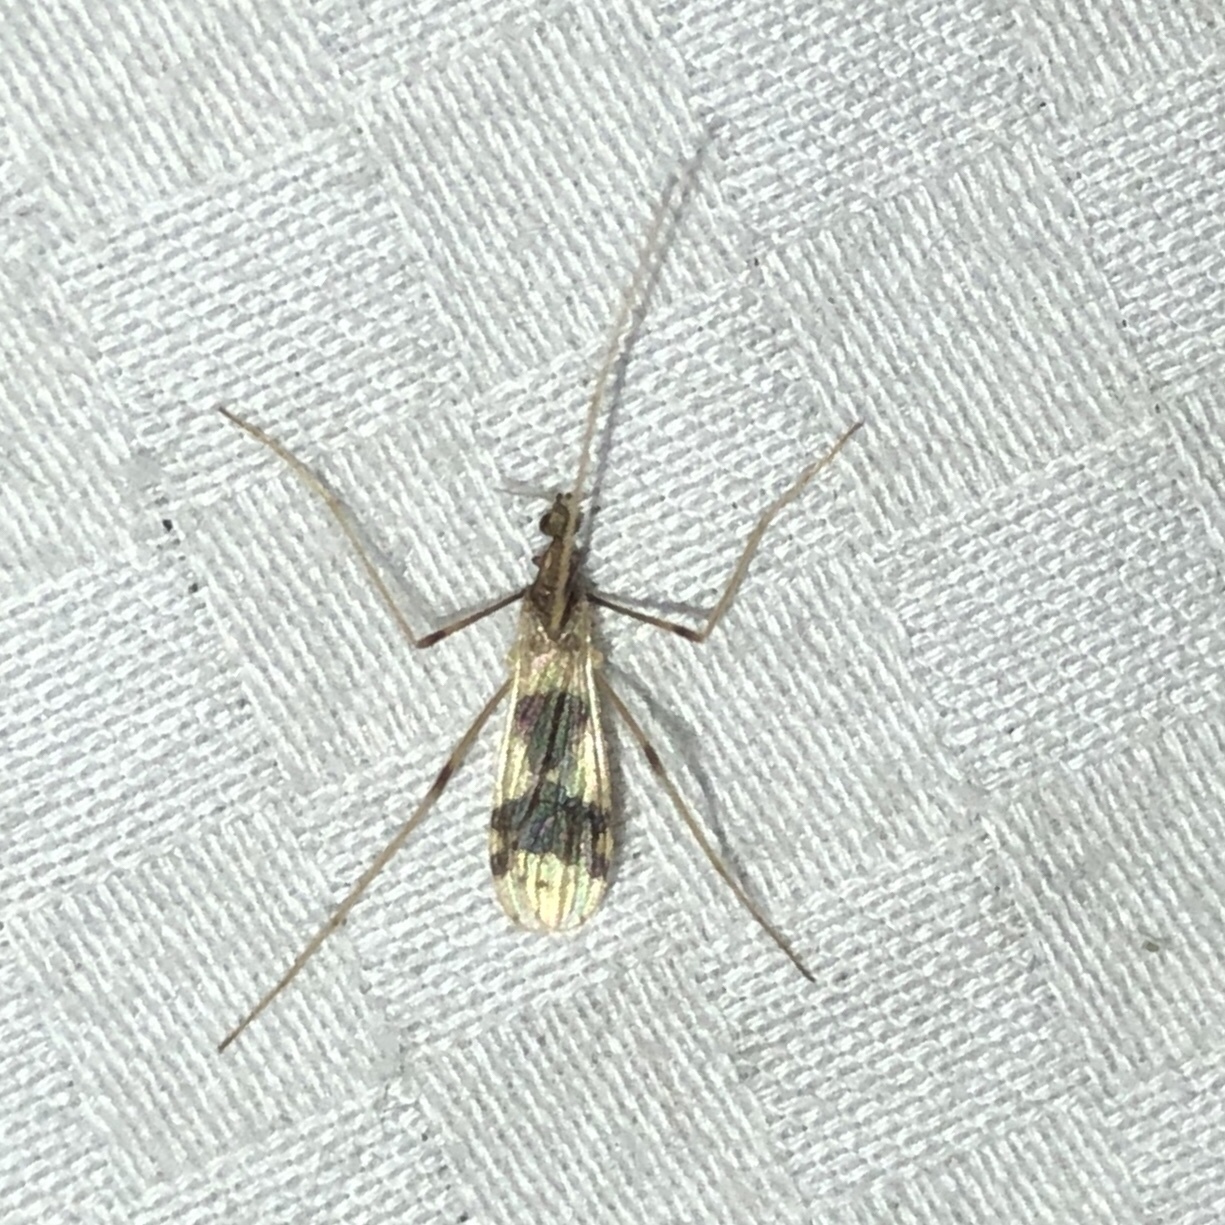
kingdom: Animalia
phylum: Arthropoda
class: Insecta
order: Diptera
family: Limoniidae
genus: Ilisia
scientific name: Ilisia venusta
